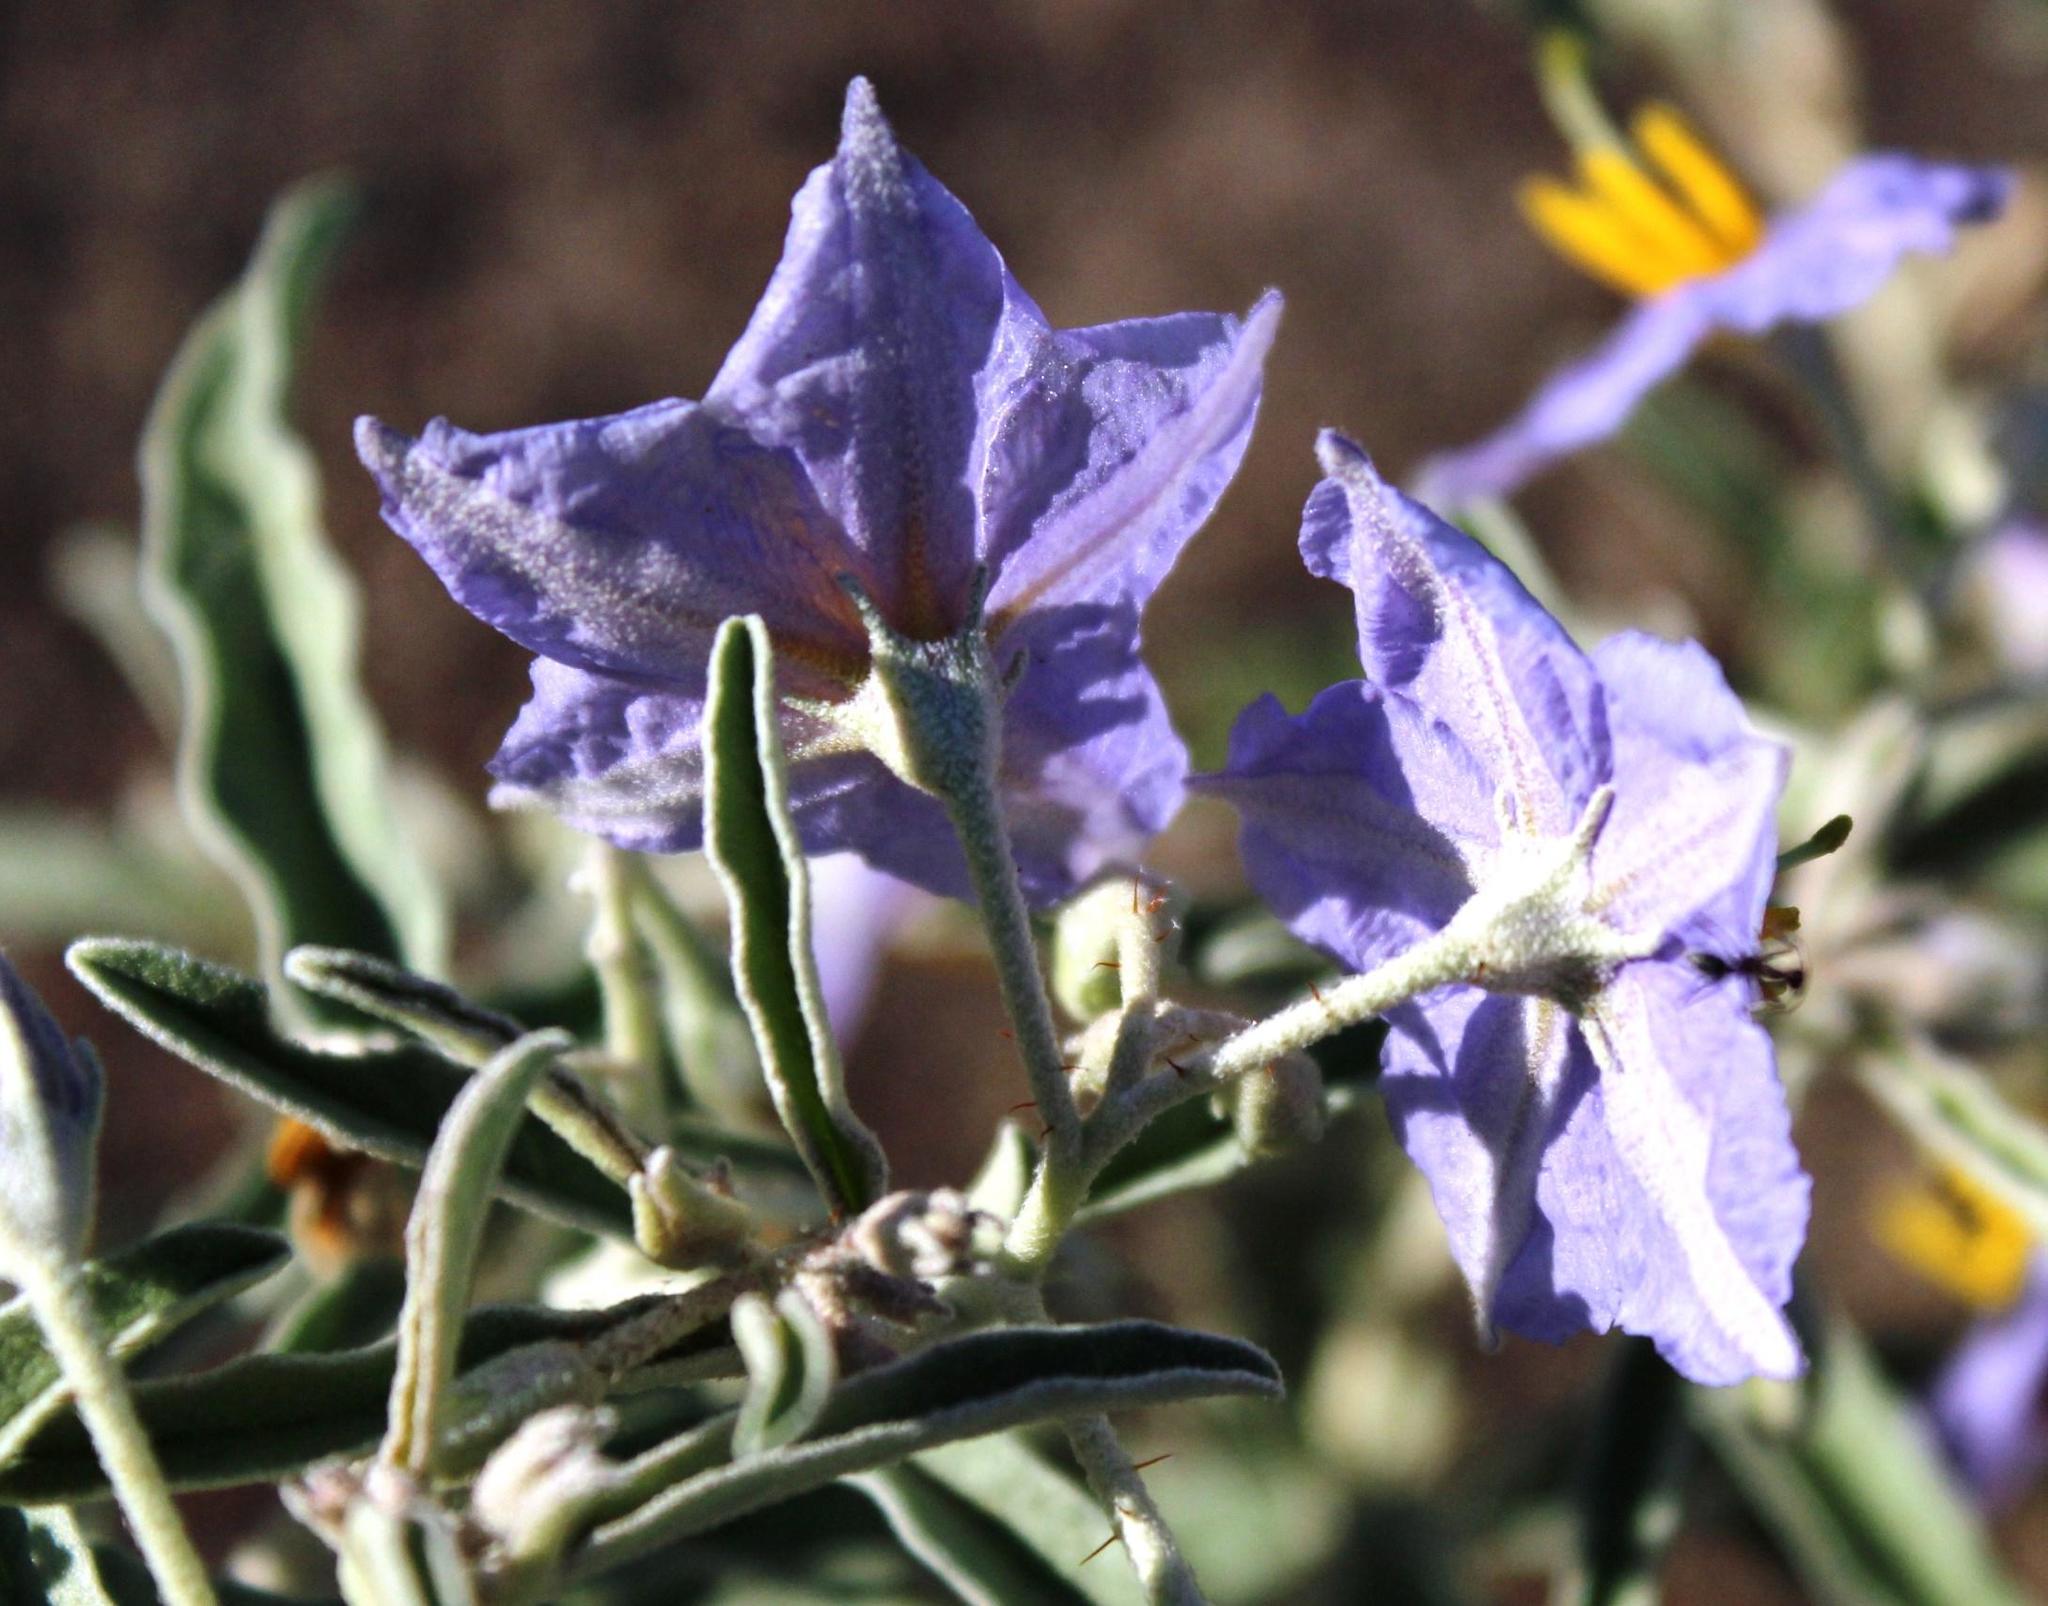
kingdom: Plantae
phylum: Tracheophyta
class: Magnoliopsida
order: Solanales
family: Solanaceae
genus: Solanum
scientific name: Solanum elaeagnifolium
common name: Silverleaf nightshade
